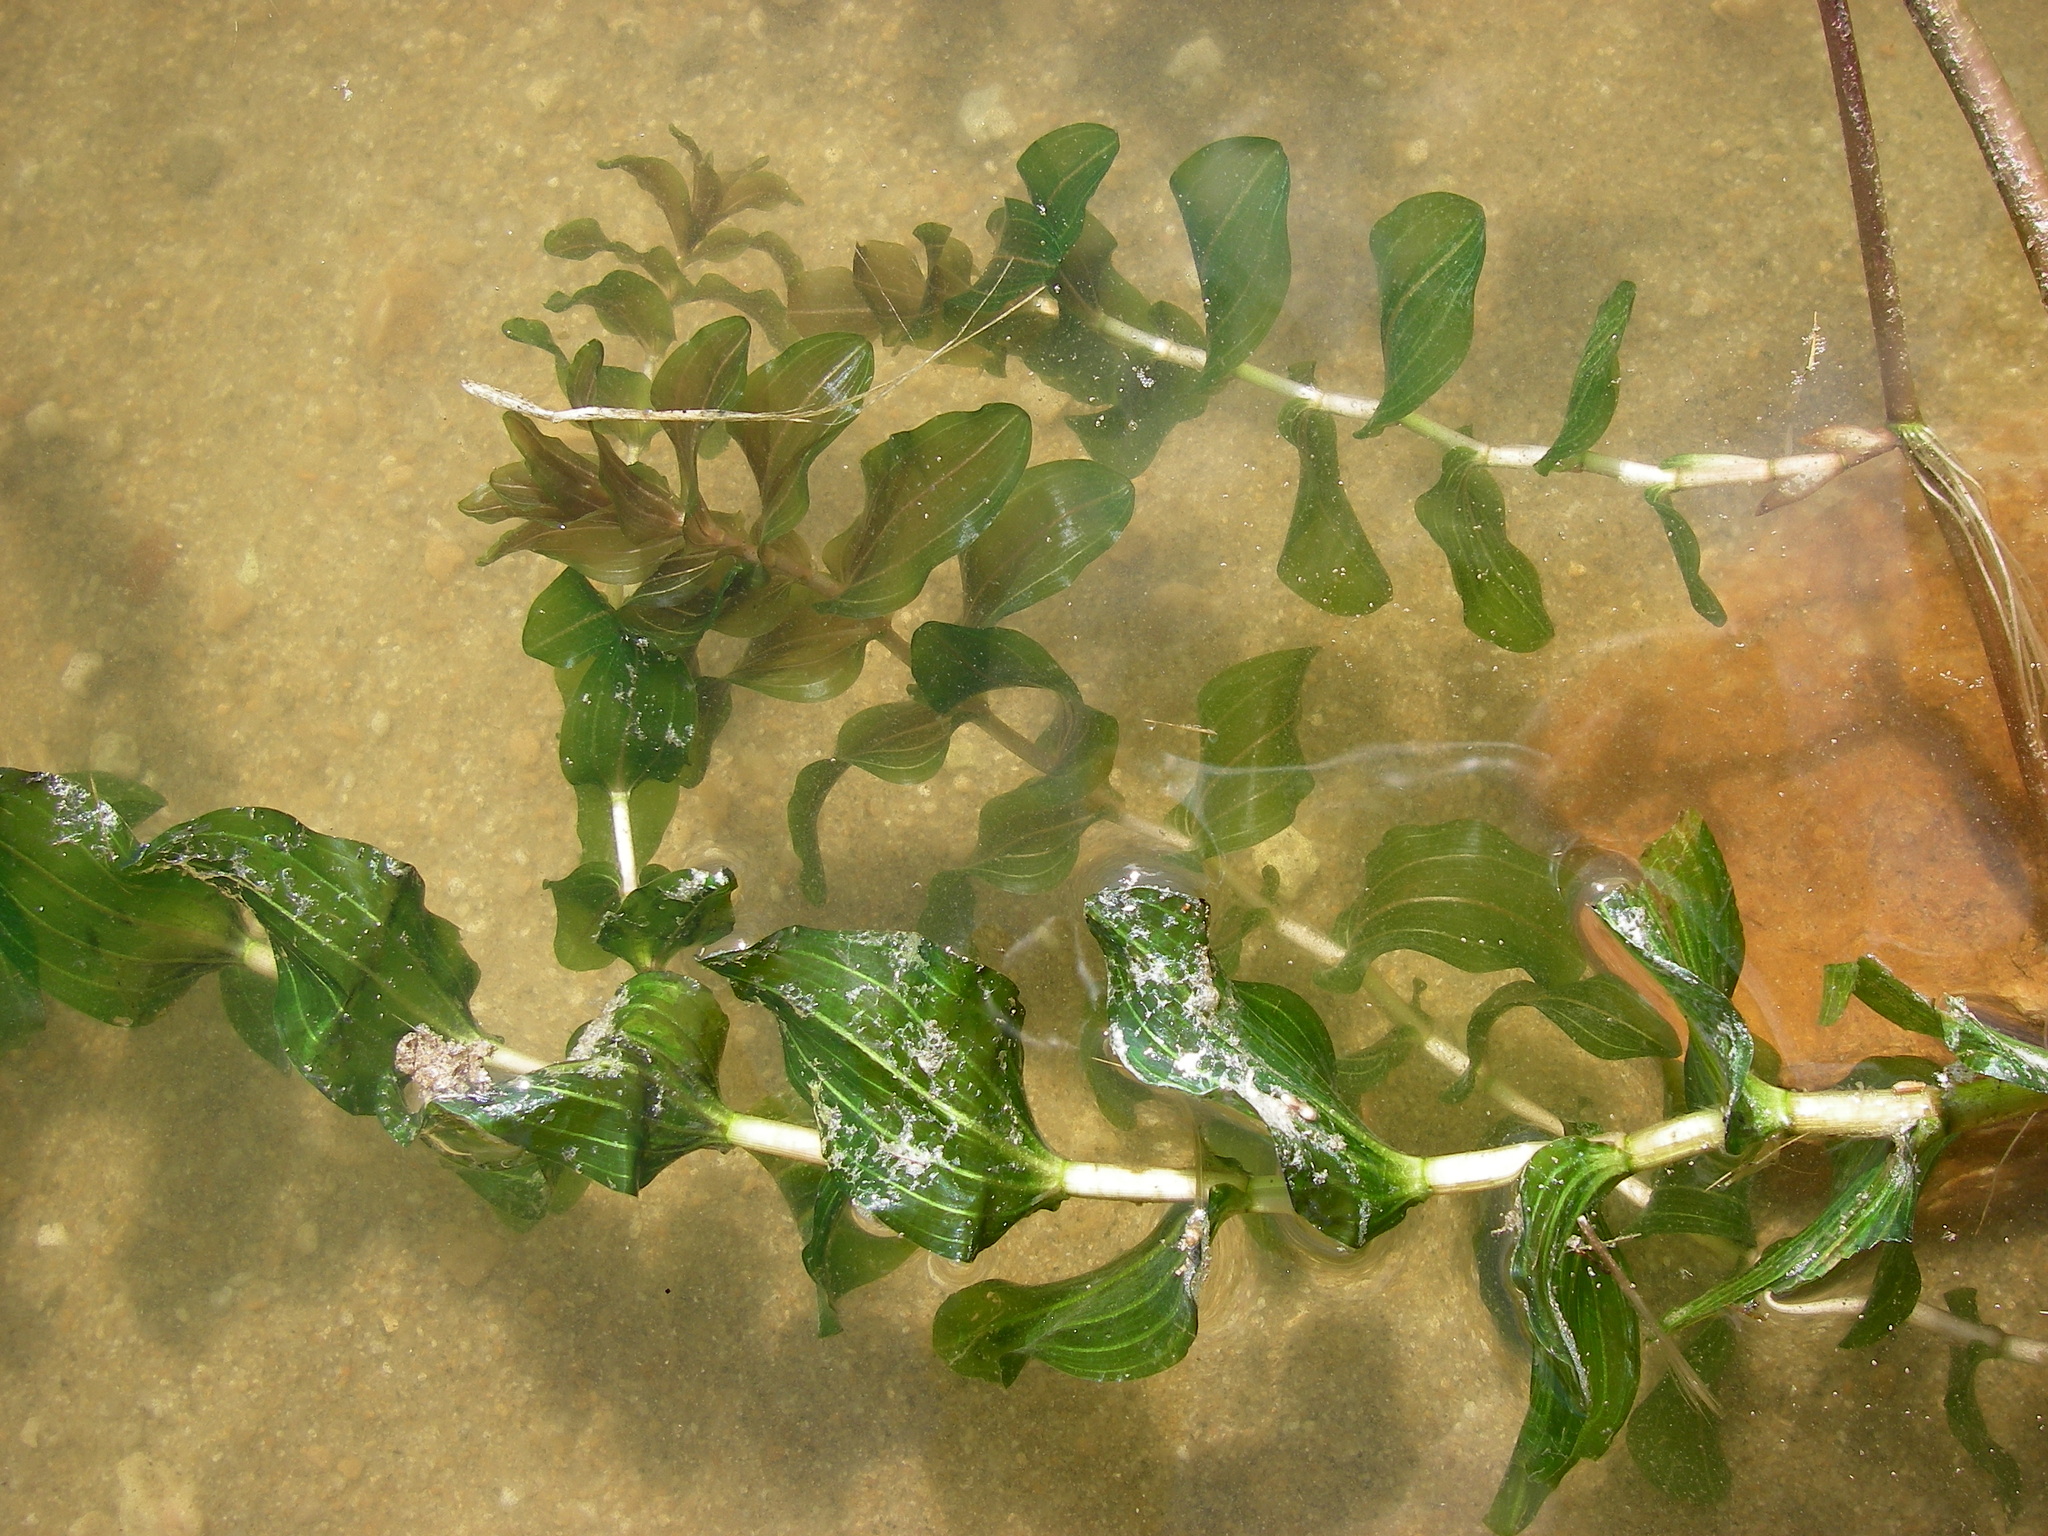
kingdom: Plantae
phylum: Tracheophyta
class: Liliopsida
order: Alismatales
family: Potamogetonaceae
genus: Potamogeton
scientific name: Potamogeton perfoliatus
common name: Perfoliate pondweed
